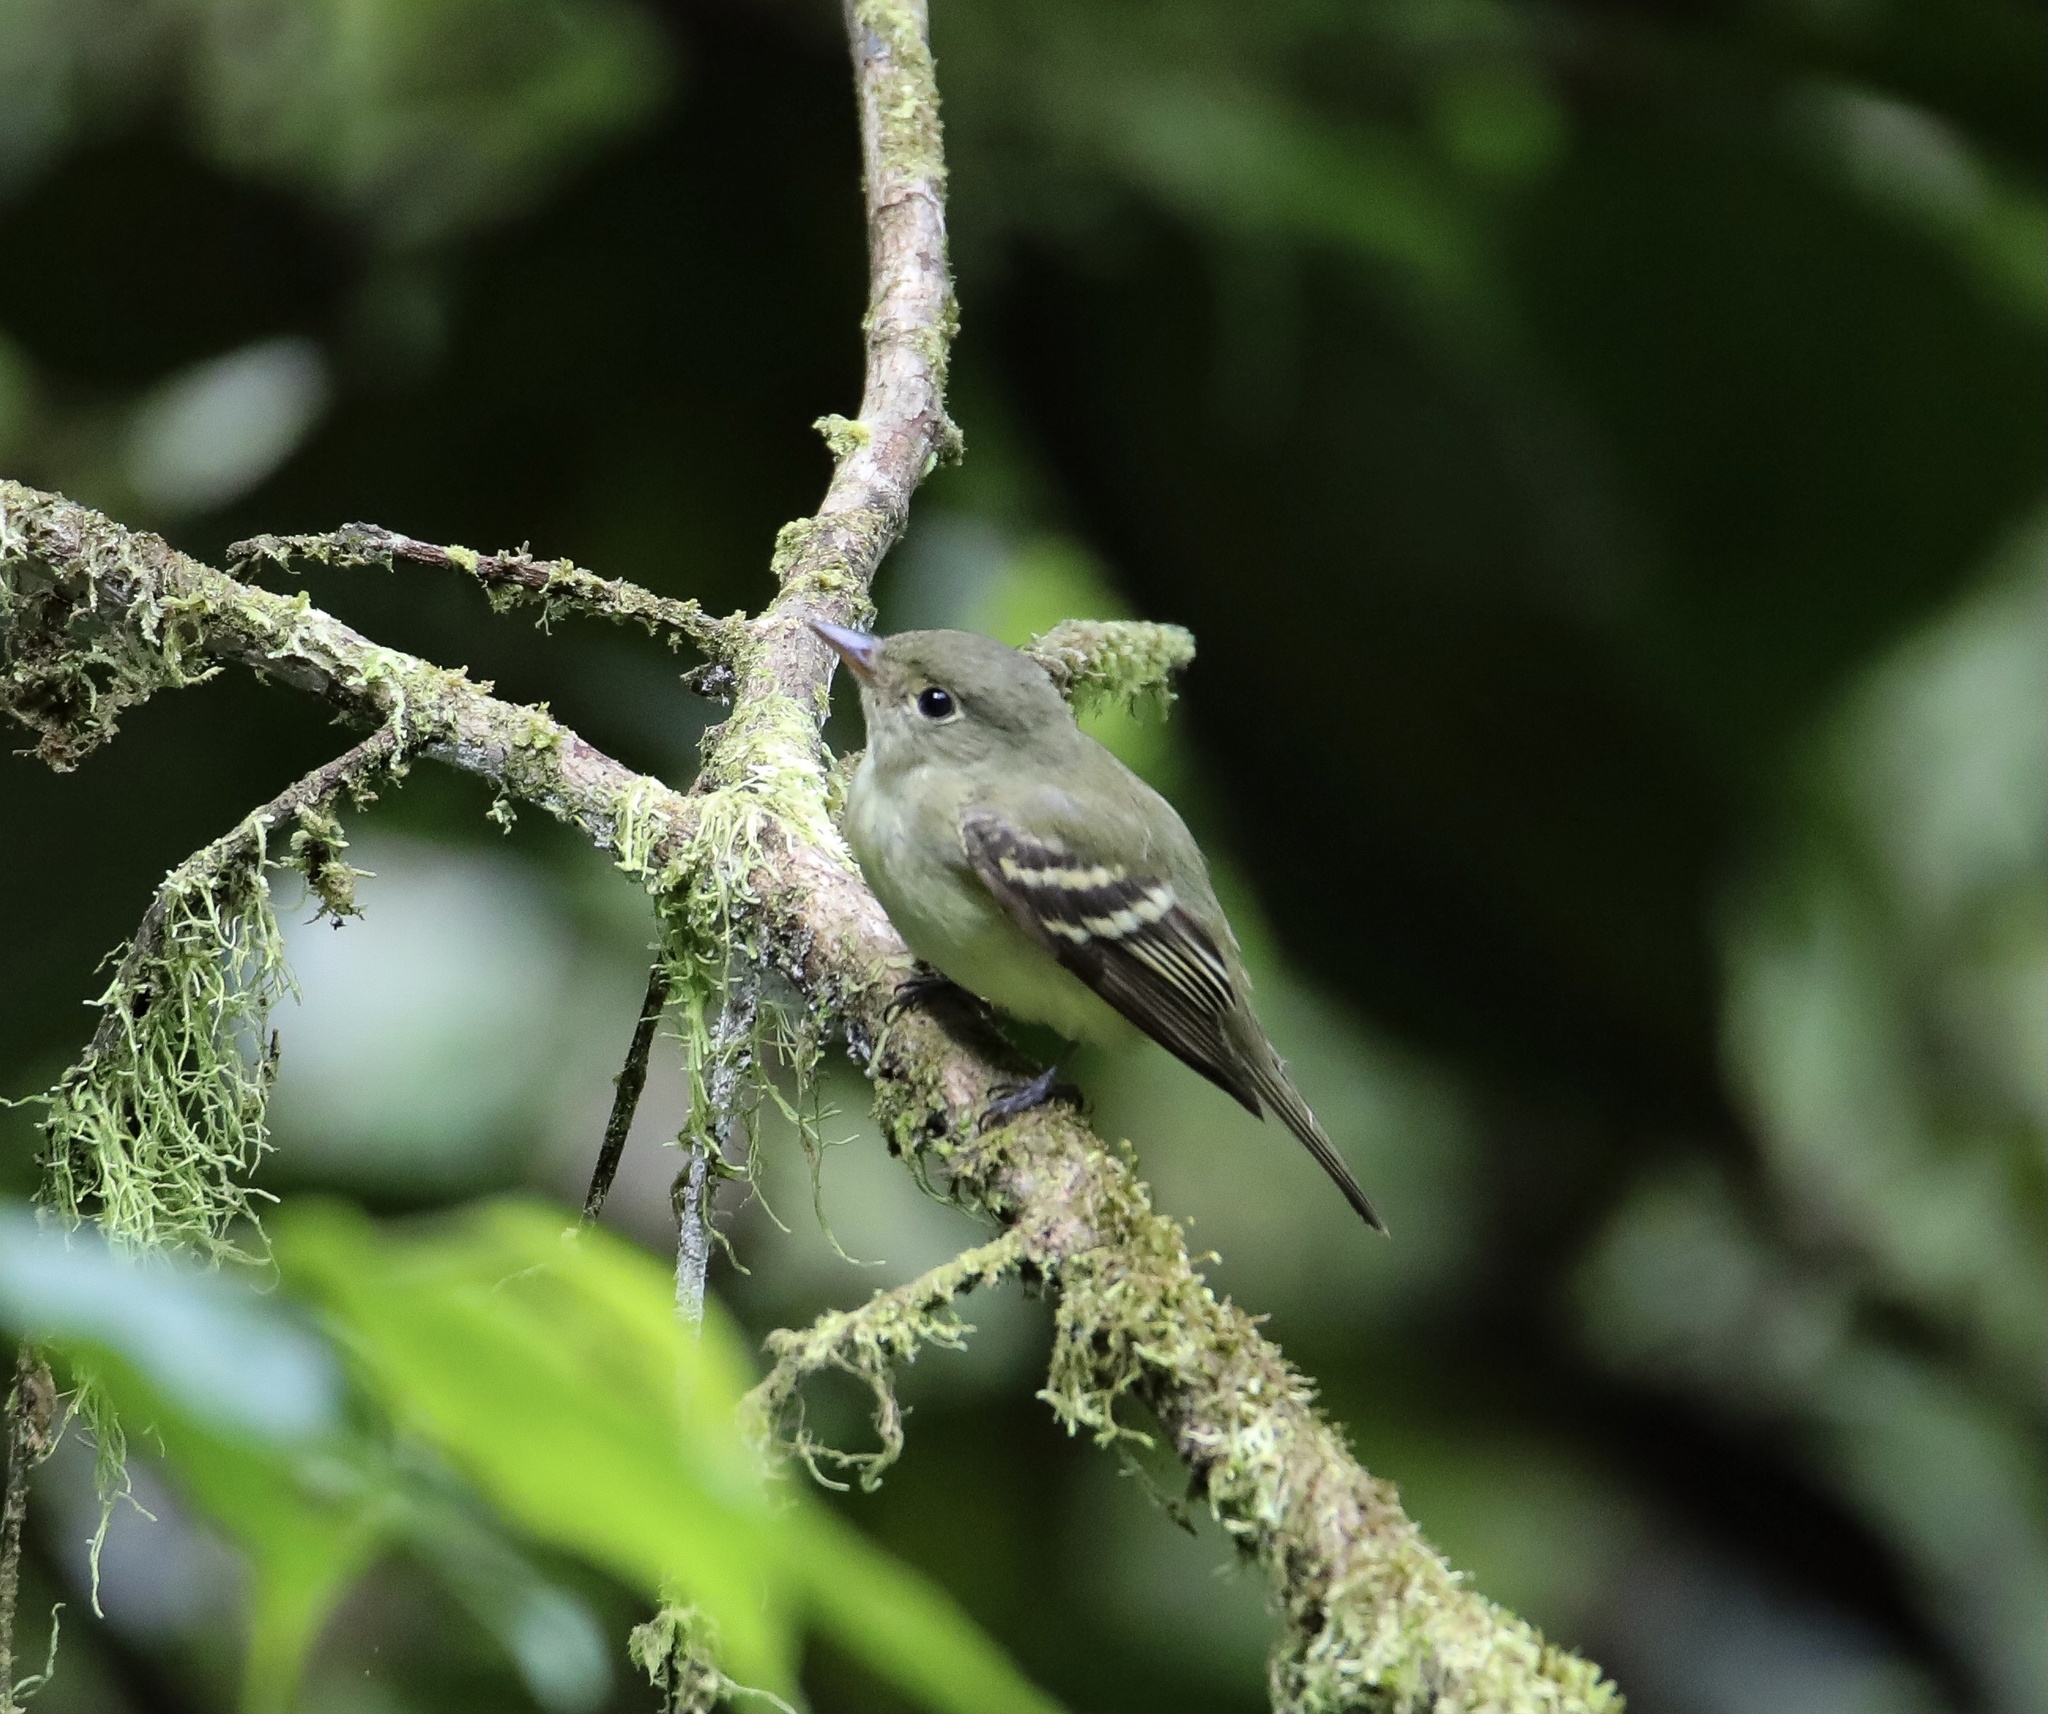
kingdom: Animalia
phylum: Chordata
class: Aves
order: Passeriformes
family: Tyrannidae
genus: Empidonax
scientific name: Empidonax flaviventris
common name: Yellow-bellied flycatcher
